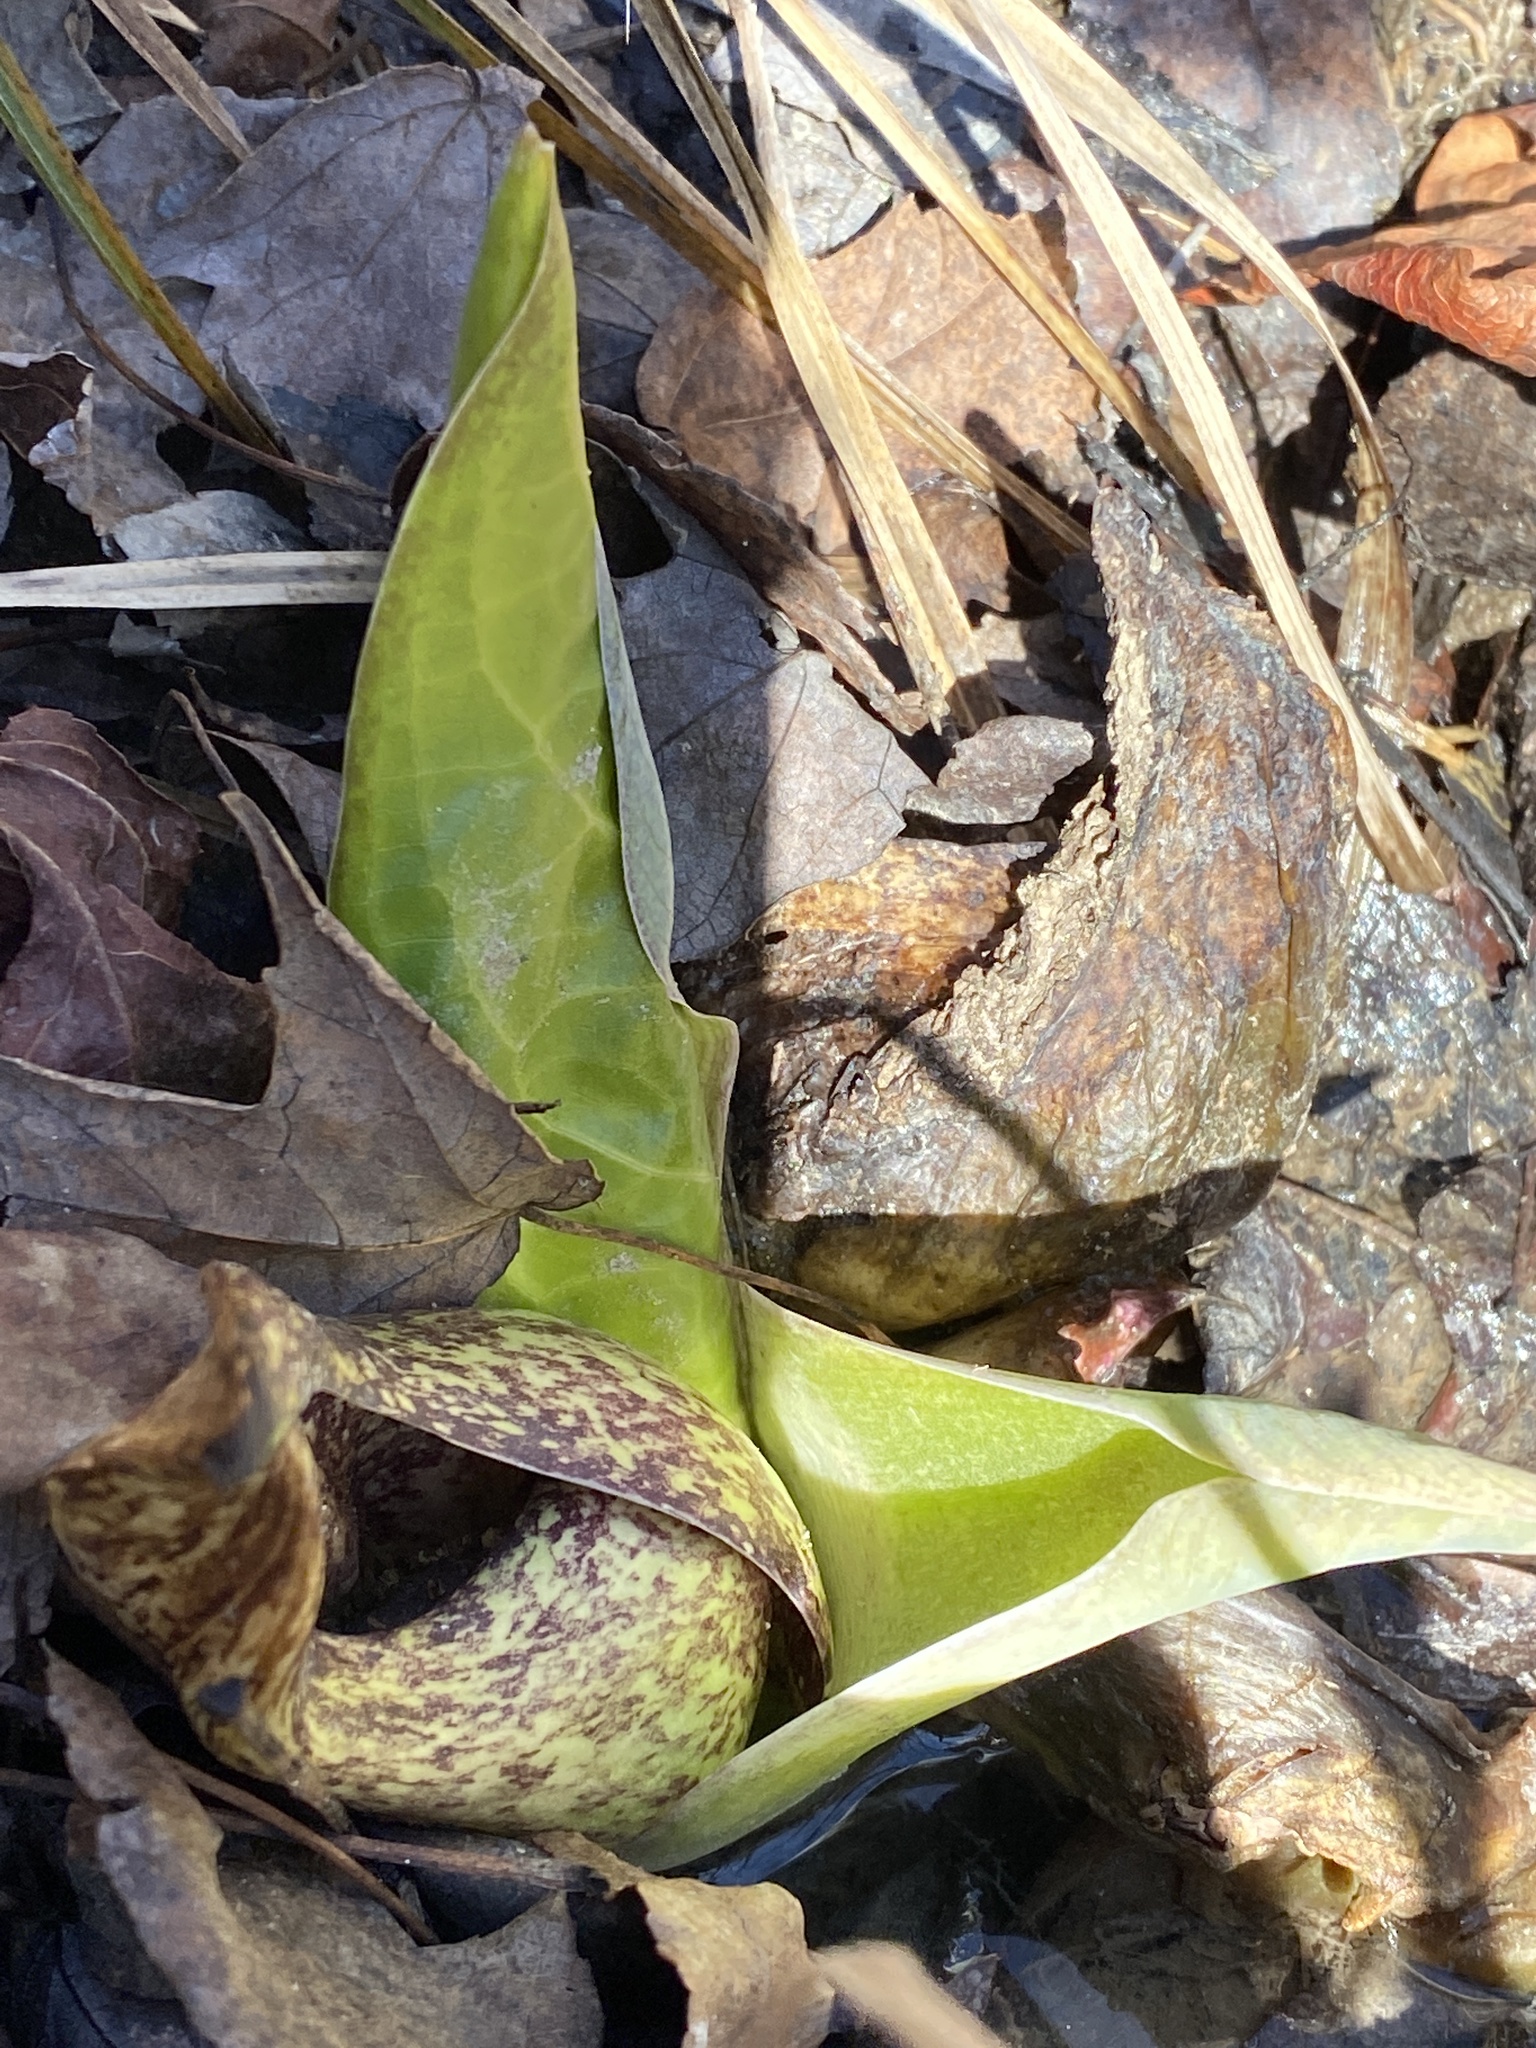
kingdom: Plantae
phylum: Tracheophyta
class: Liliopsida
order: Alismatales
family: Araceae
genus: Symplocarpus
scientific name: Symplocarpus foetidus
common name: Eastern skunk cabbage
